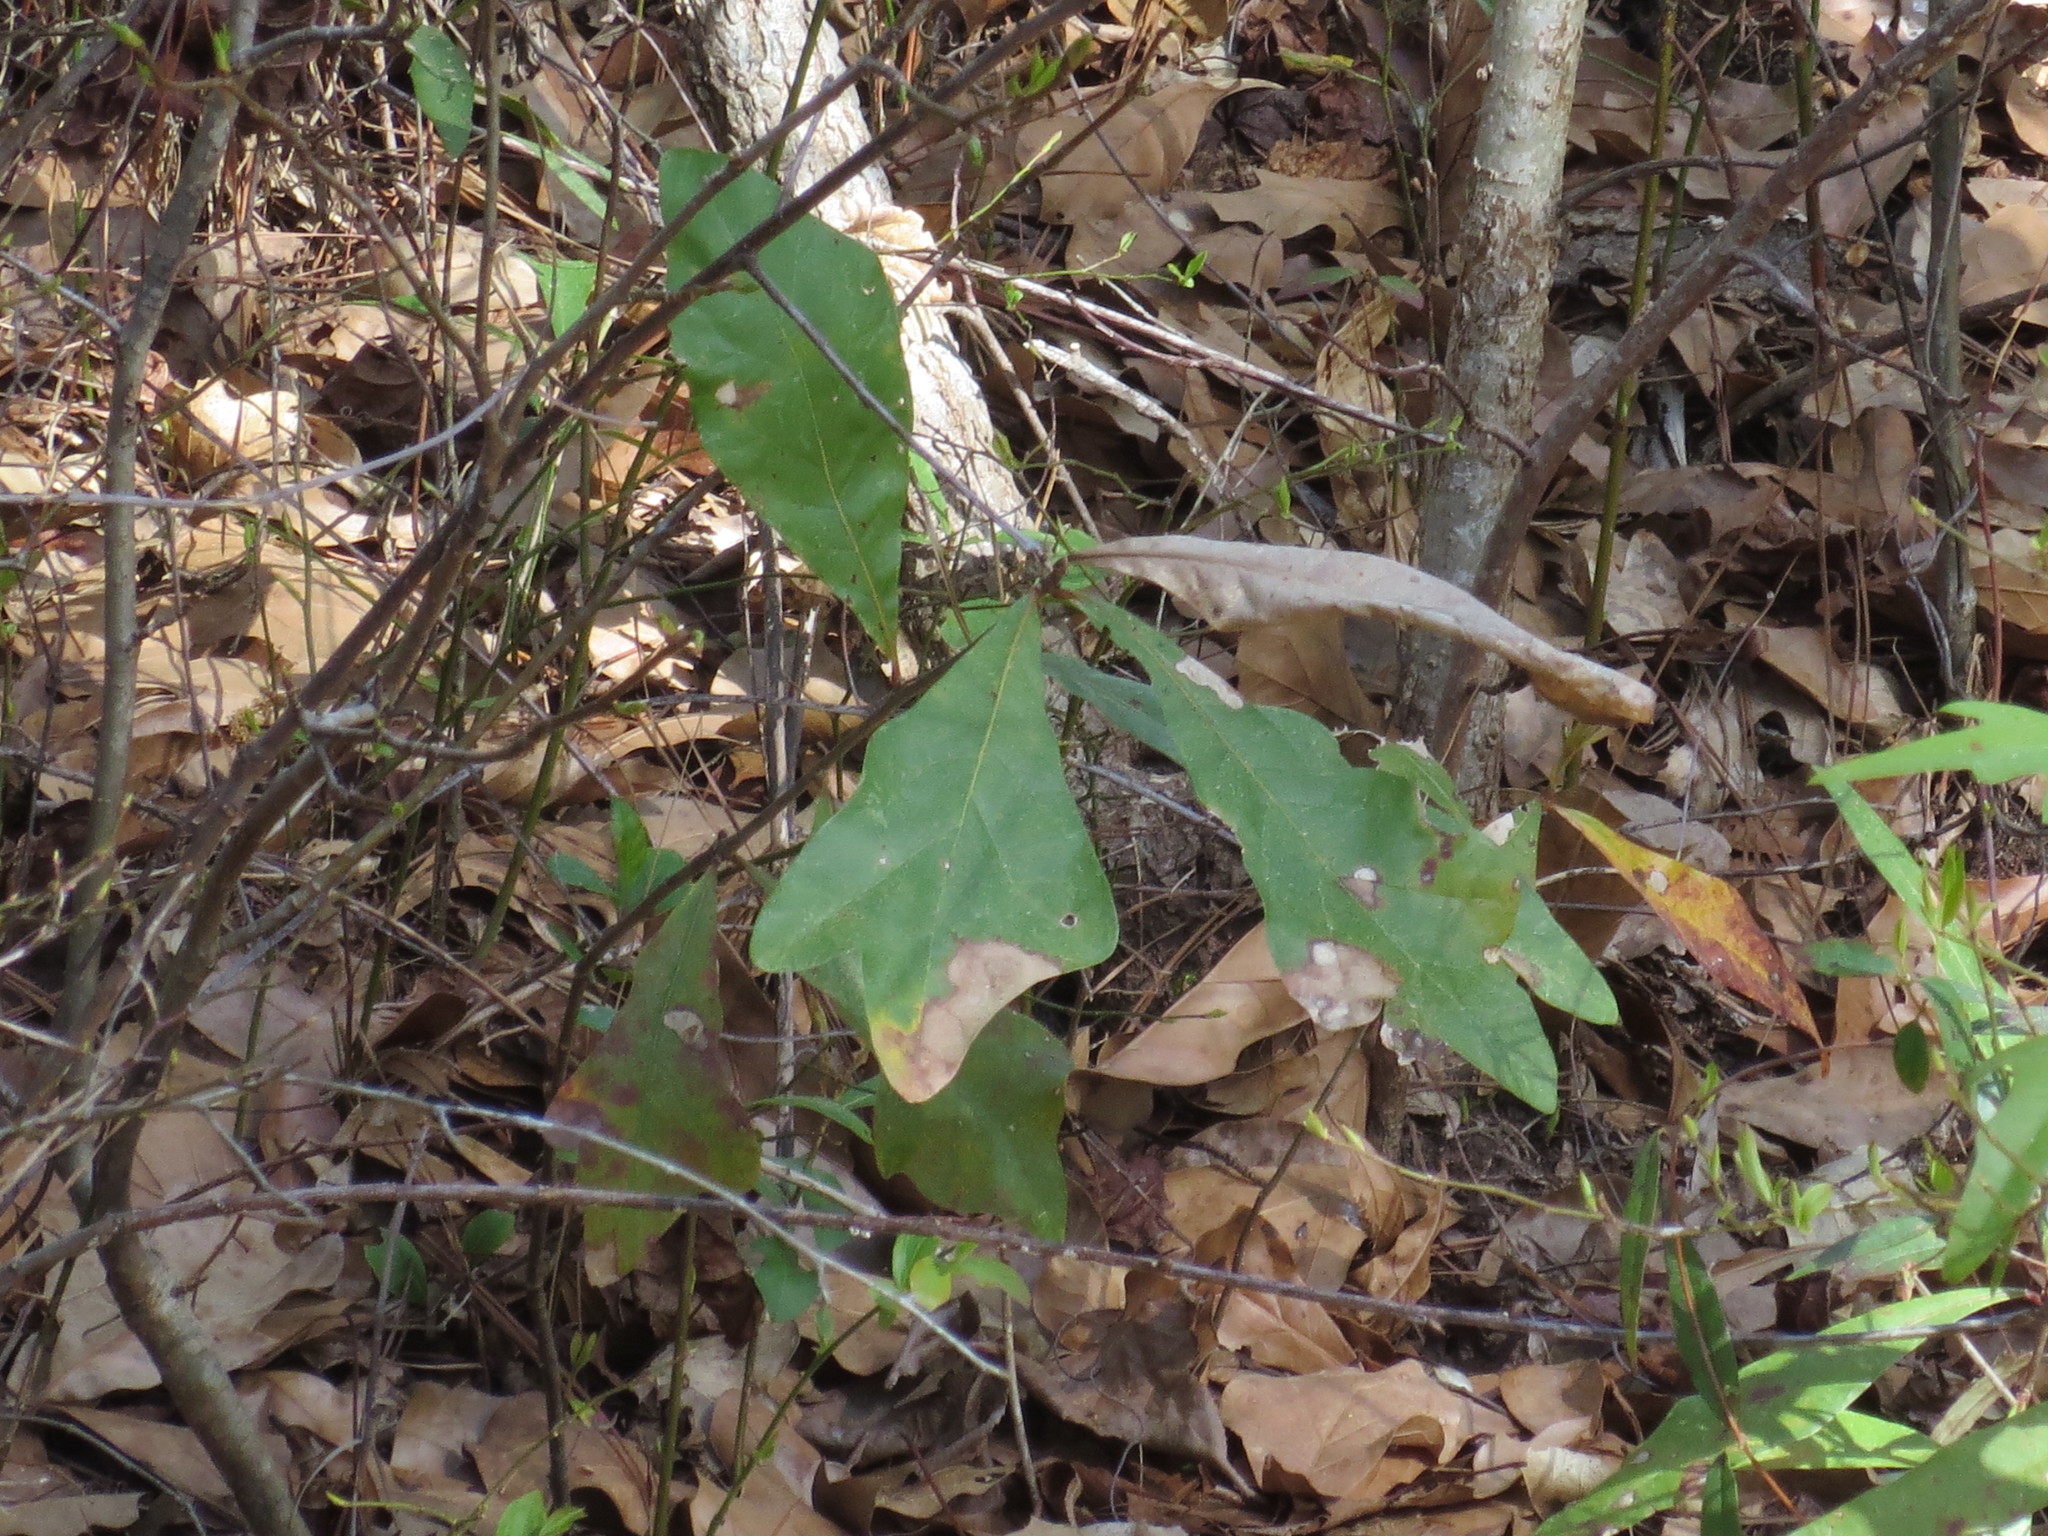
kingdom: Plantae
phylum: Tracheophyta
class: Magnoliopsida
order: Fagales
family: Fagaceae
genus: Quercus
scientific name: Quercus nigra
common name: Water oak
